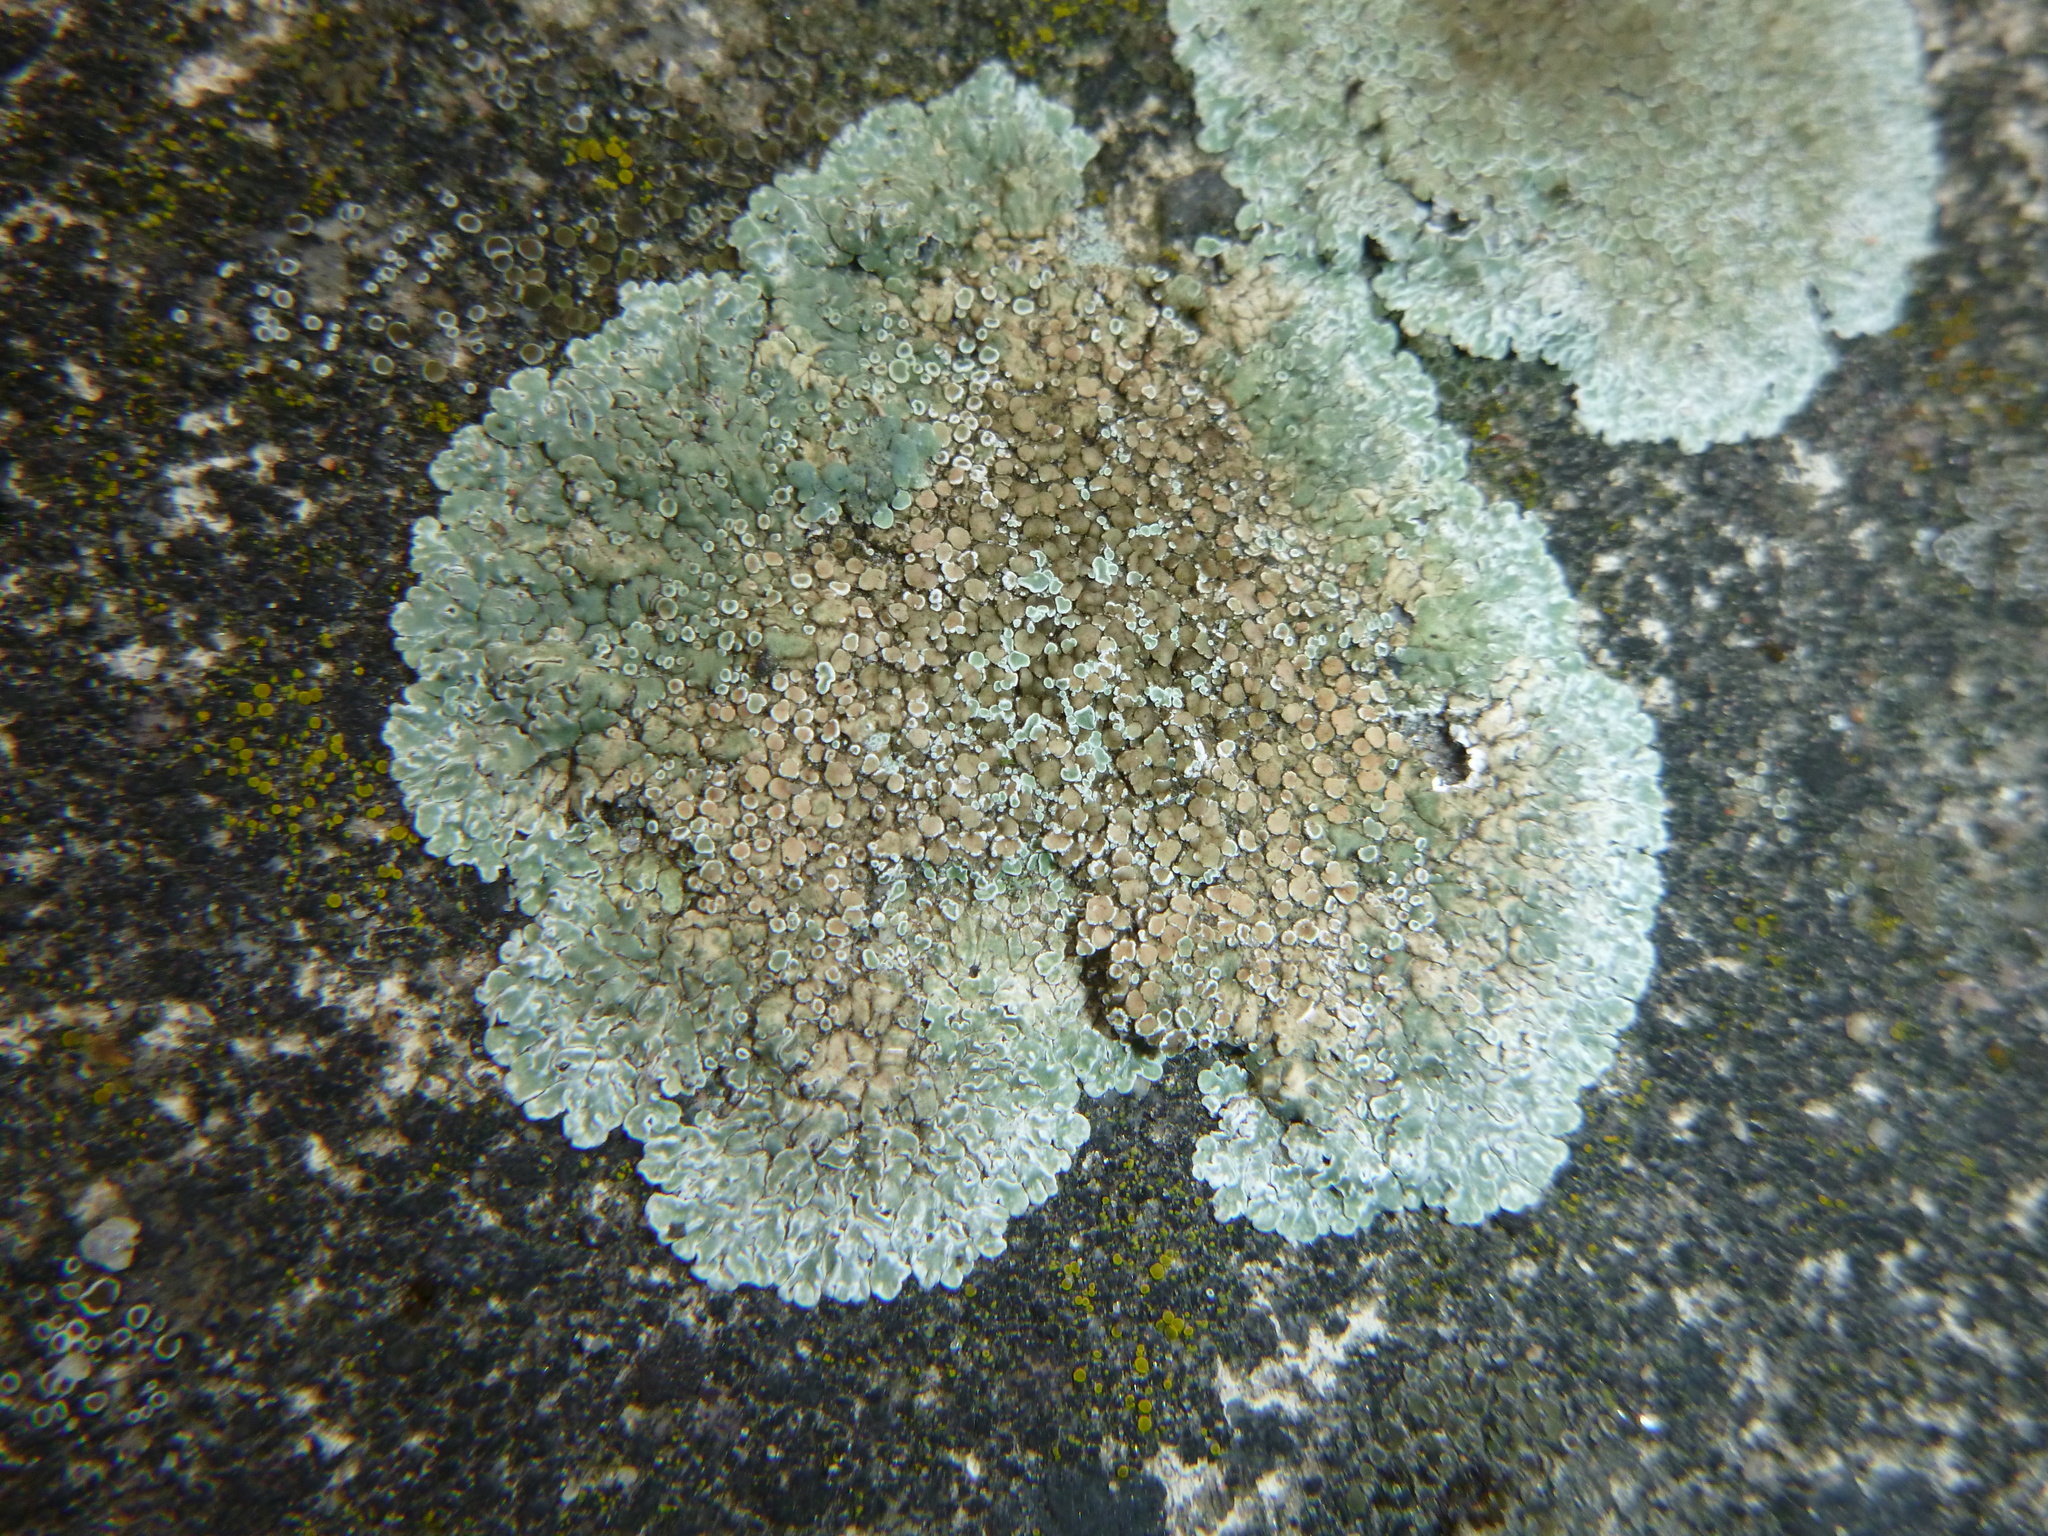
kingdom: Fungi
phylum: Ascomycota
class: Lecanoromycetes
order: Lecanorales
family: Lecanoraceae
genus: Protoparmeliopsis
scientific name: Protoparmeliopsis muralis
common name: Stonewall rim lichen
